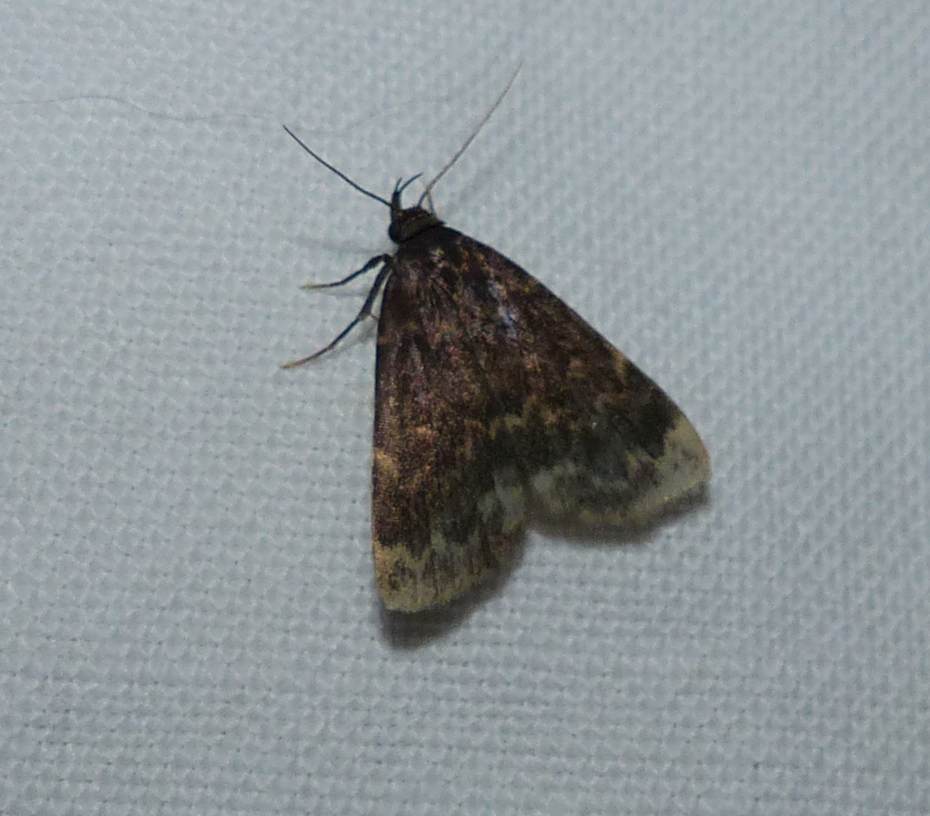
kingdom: Animalia
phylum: Arthropoda
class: Insecta
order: Lepidoptera
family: Erebidae
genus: Idia
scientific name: Idia lubricalis
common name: Twin-striped tabby
